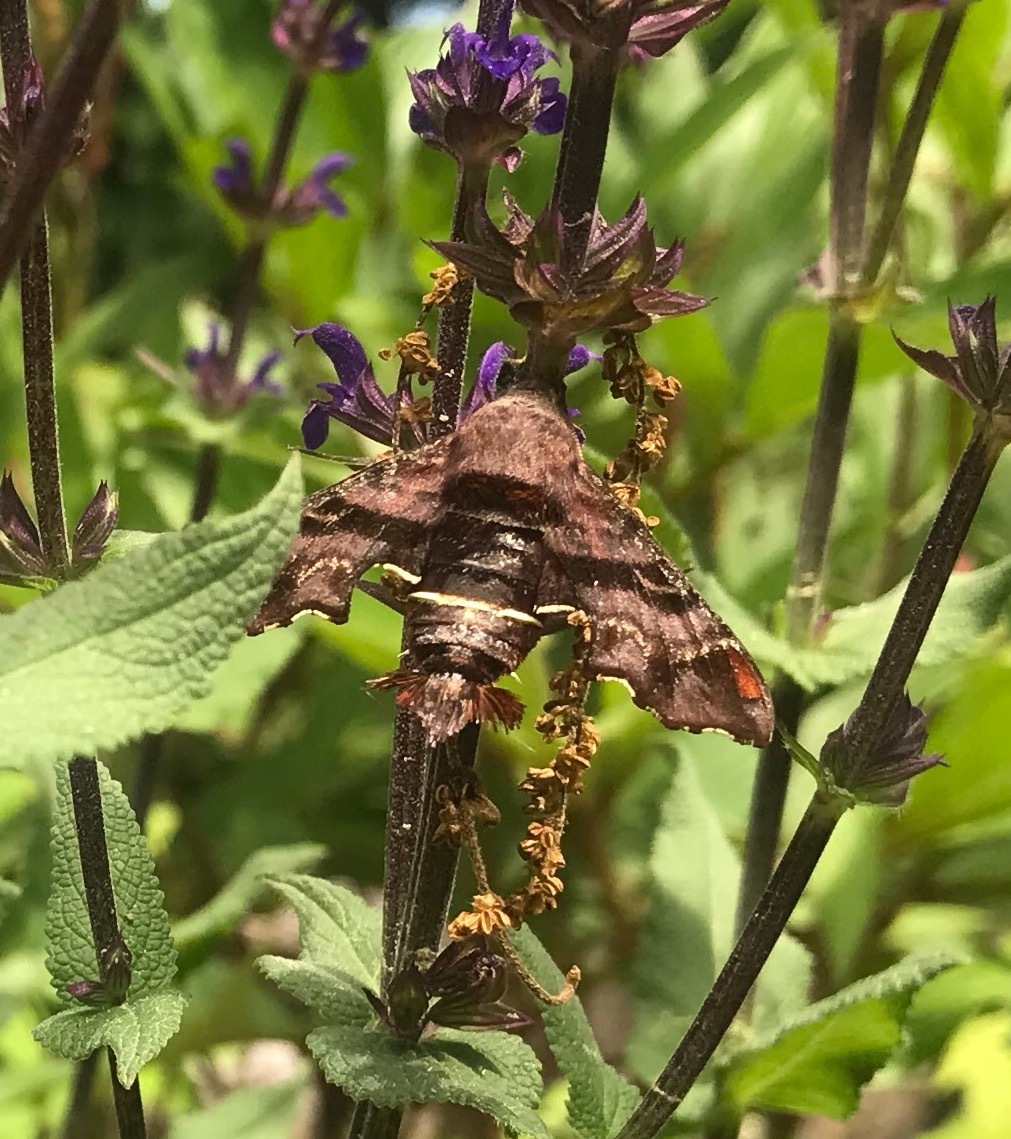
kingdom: Animalia
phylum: Arthropoda
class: Insecta
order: Lepidoptera
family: Sphingidae
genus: Amphion
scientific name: Amphion floridensis
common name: Nessus sphinx
